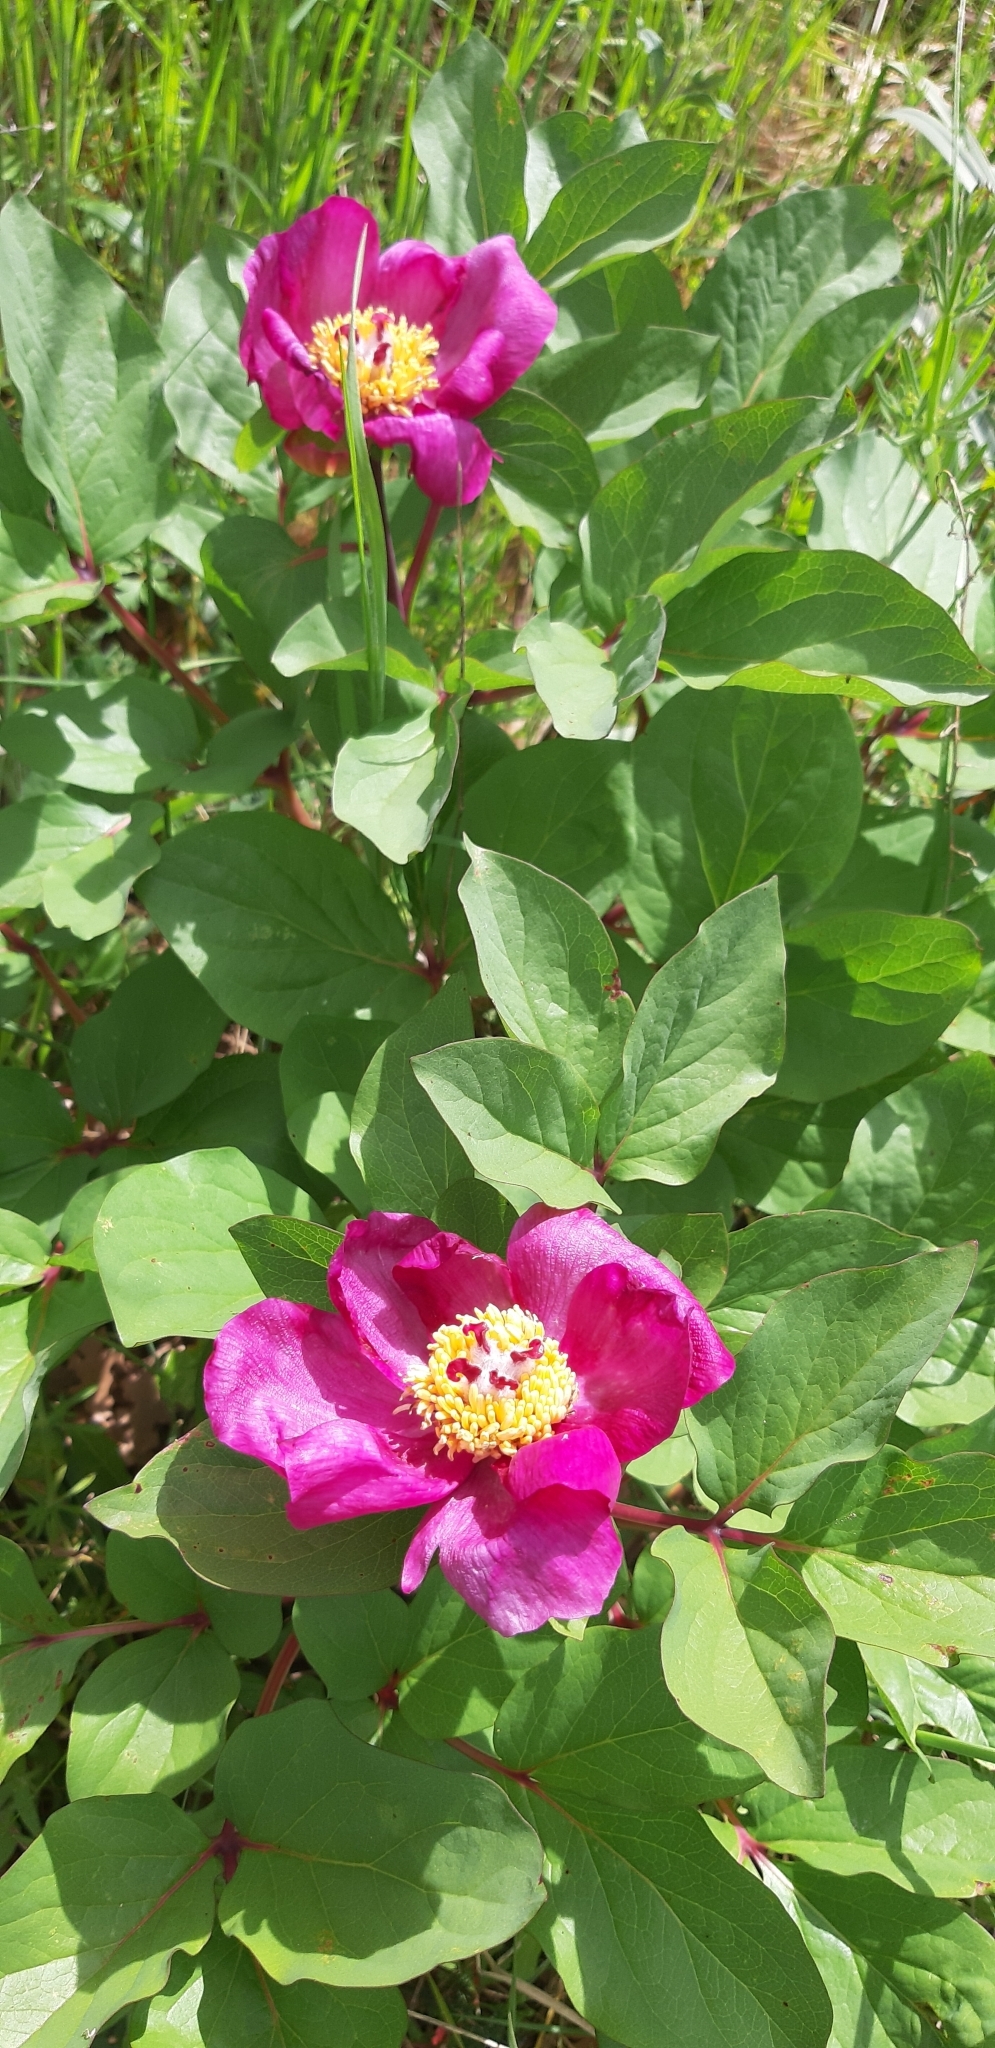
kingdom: Plantae
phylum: Tracheophyta
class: Magnoliopsida
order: Saxifragales
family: Paeoniaceae
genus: Paeonia
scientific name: Paeonia mascula
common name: Peony
